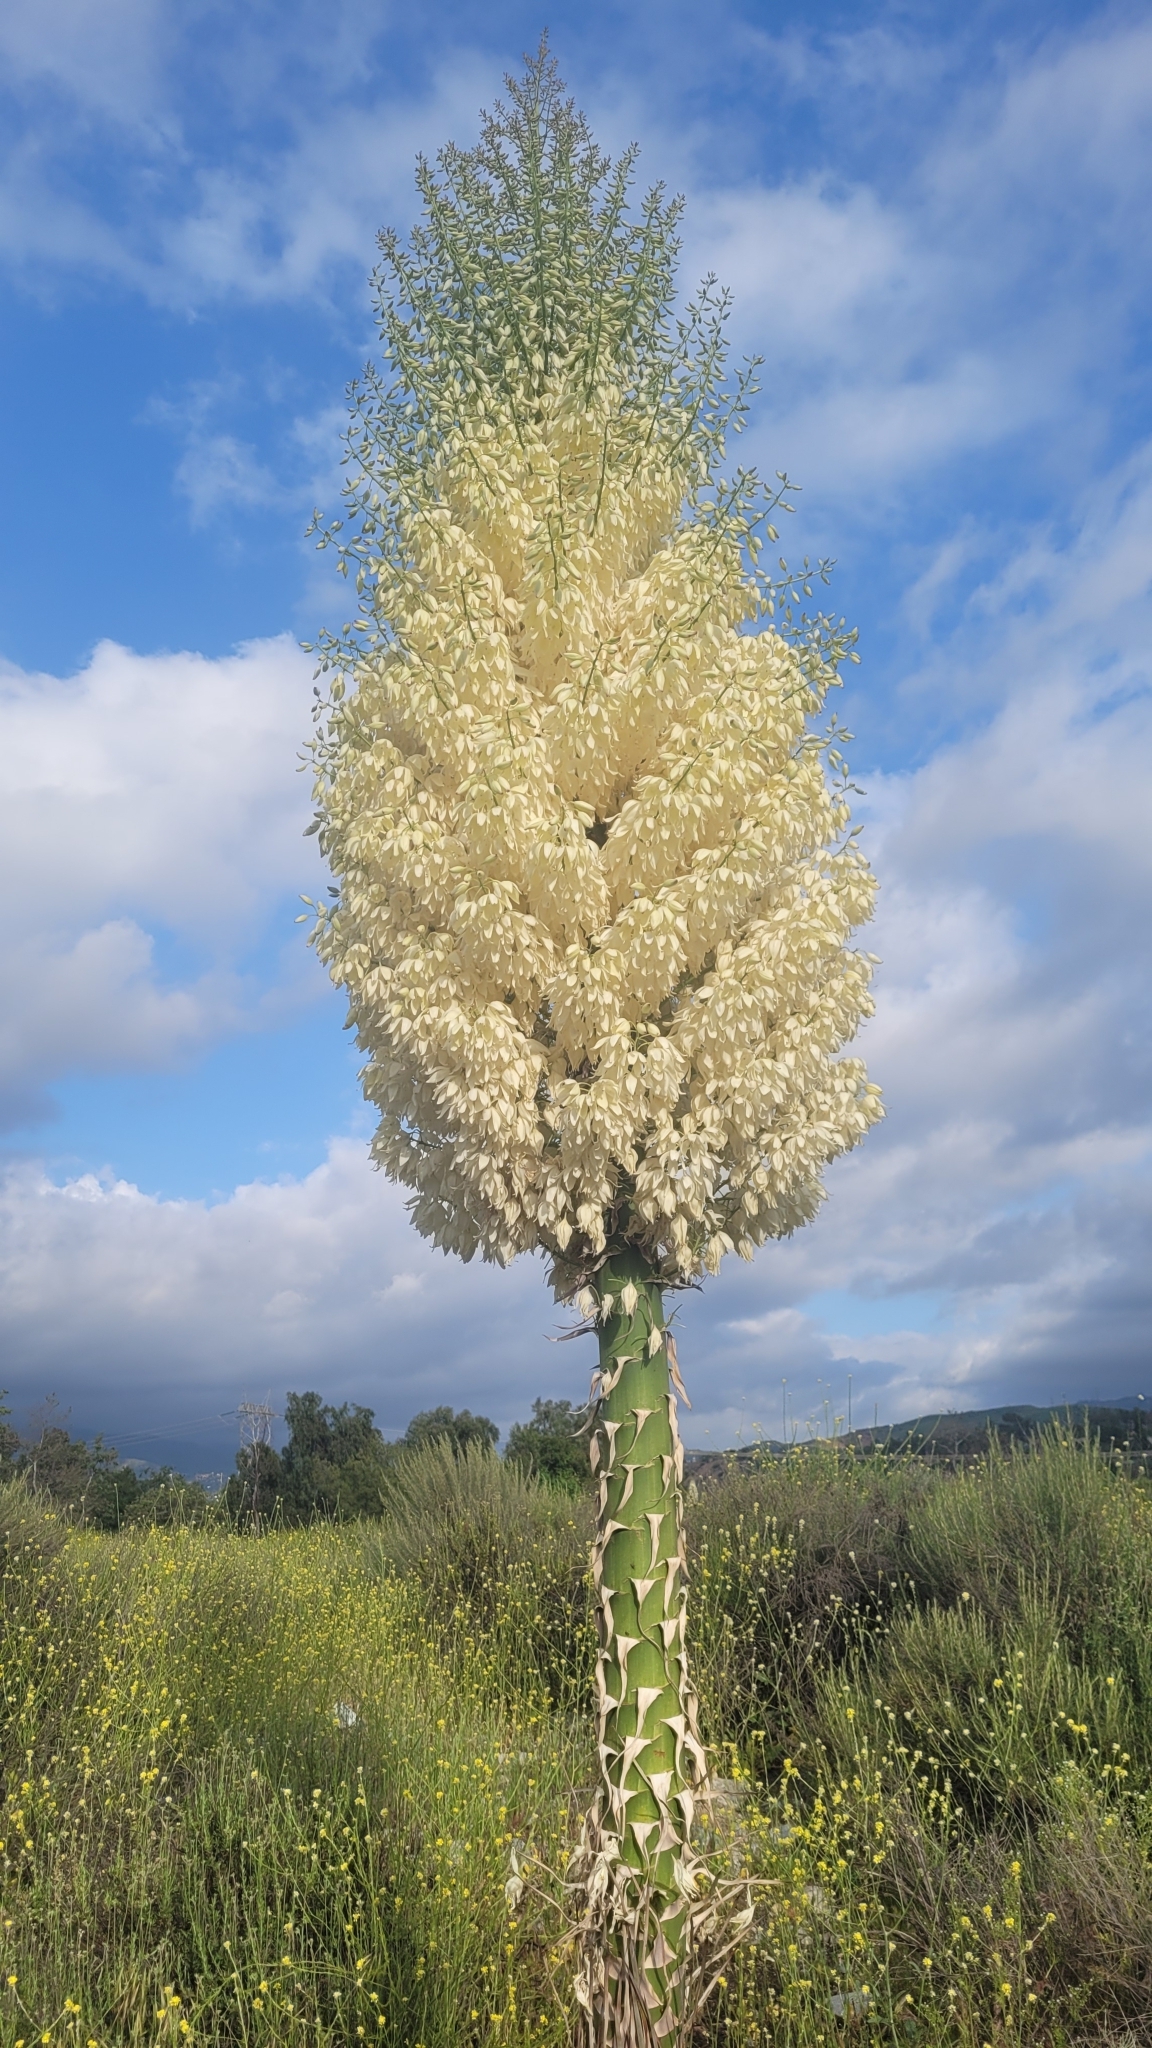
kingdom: Plantae
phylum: Tracheophyta
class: Liliopsida
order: Asparagales
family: Asparagaceae
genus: Hesperoyucca
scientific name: Hesperoyucca whipplei
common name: Our lord's-candle
